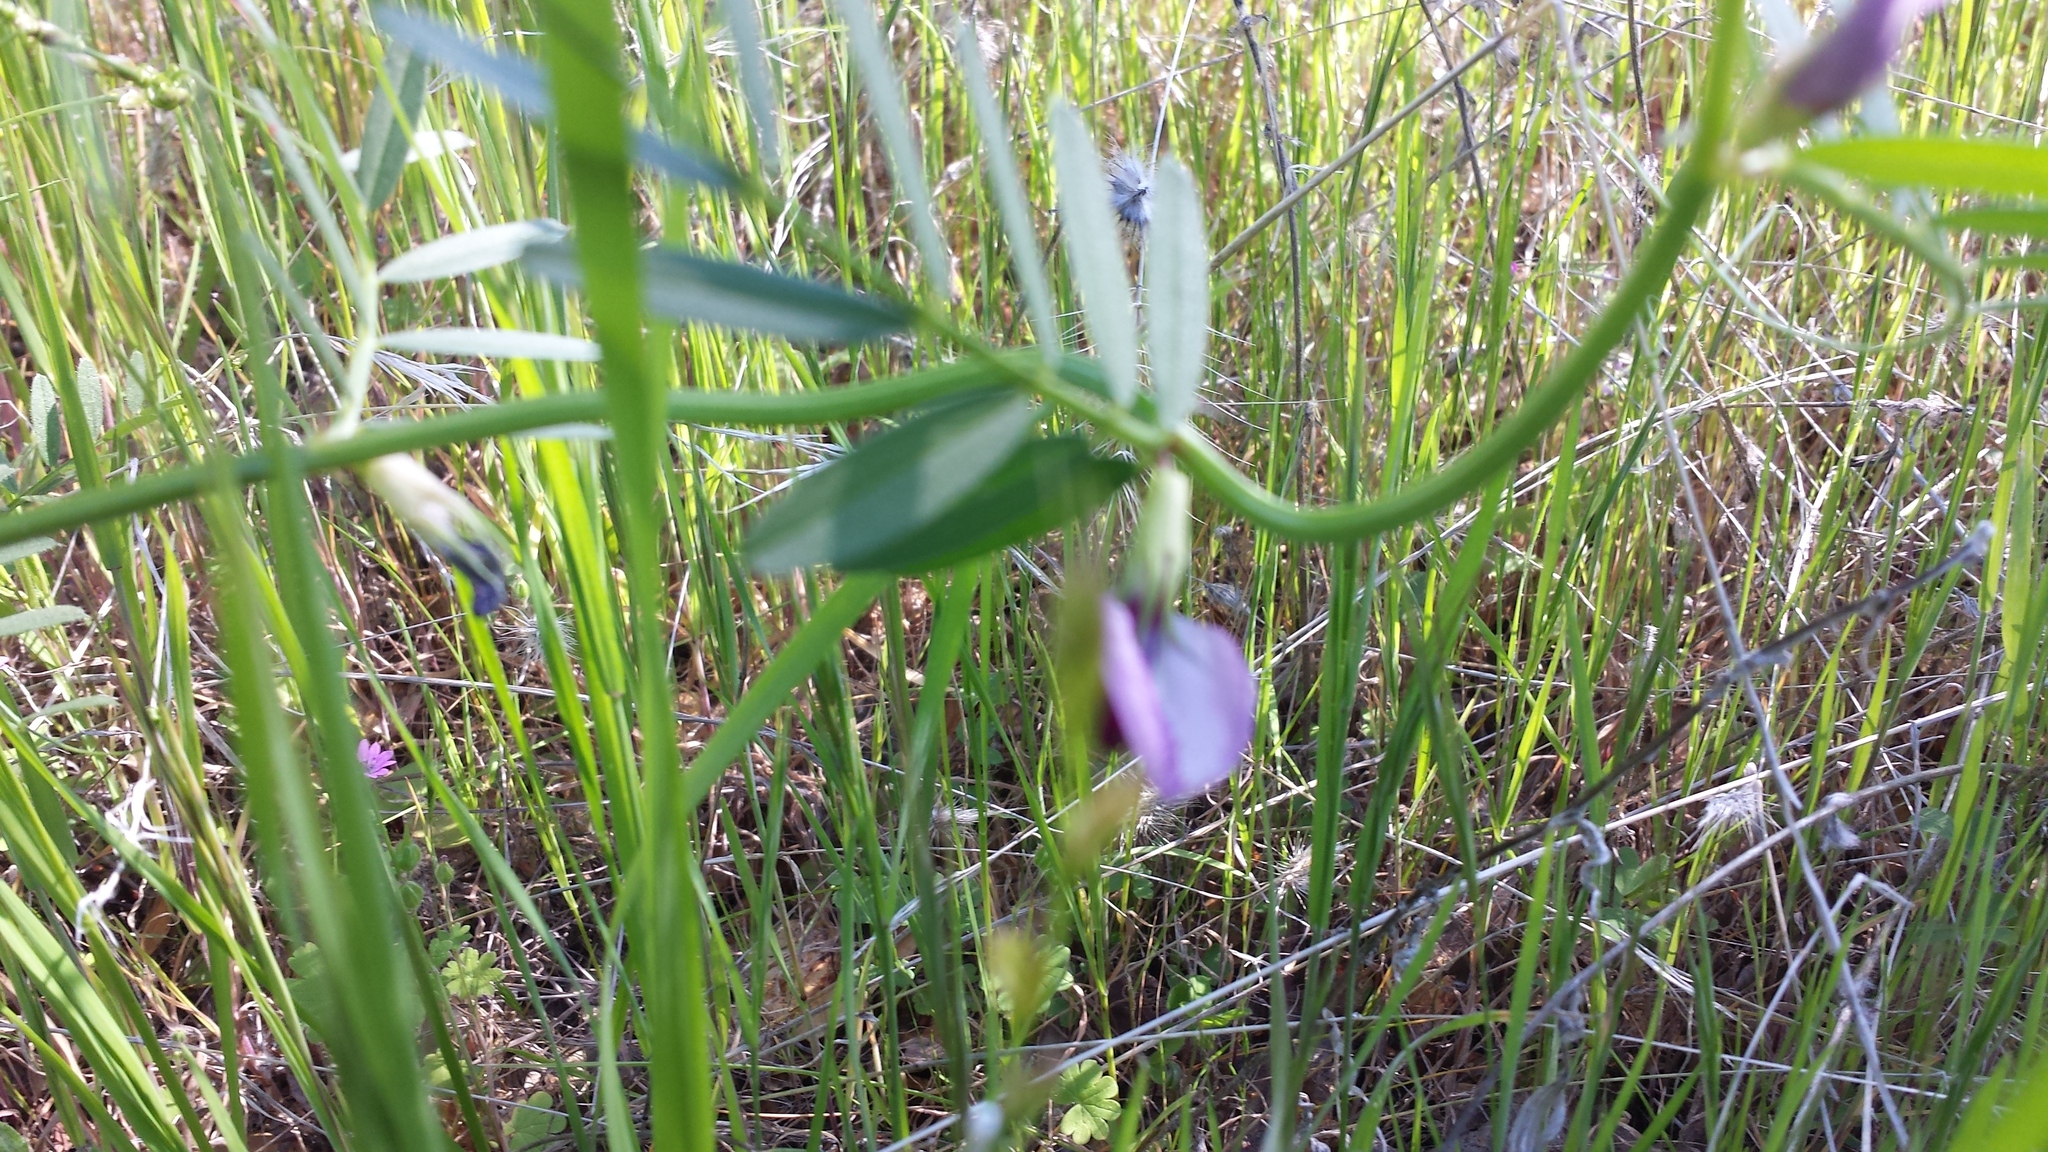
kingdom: Plantae
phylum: Tracheophyta
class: Magnoliopsida
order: Fabales
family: Fabaceae
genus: Vicia
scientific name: Vicia villosa
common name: Fodder vetch
